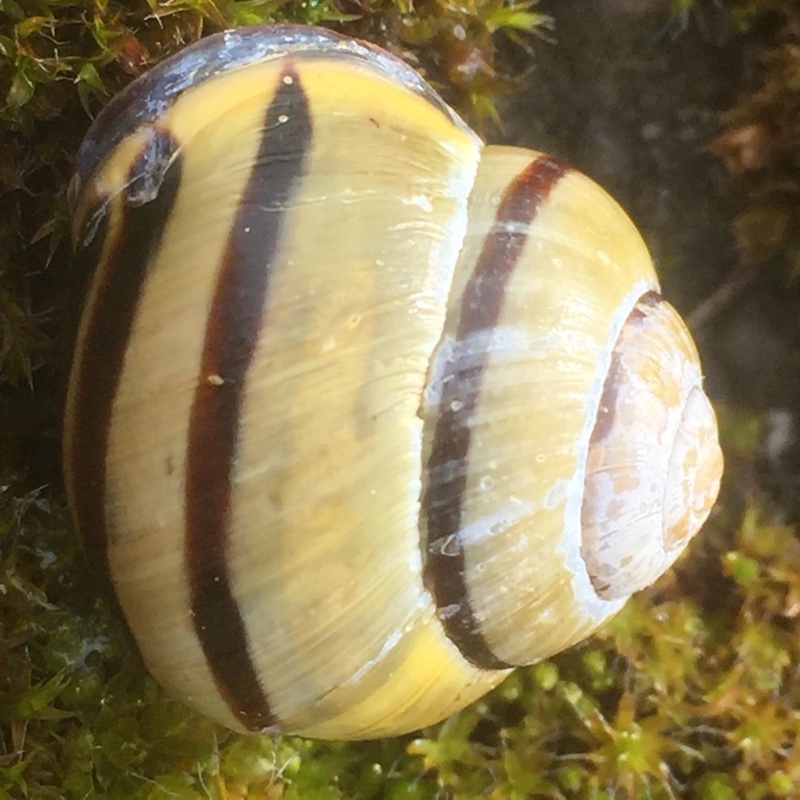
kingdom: Animalia
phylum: Mollusca
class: Gastropoda
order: Stylommatophora
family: Helicidae
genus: Cepaea
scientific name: Cepaea nemoralis
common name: Grovesnail
